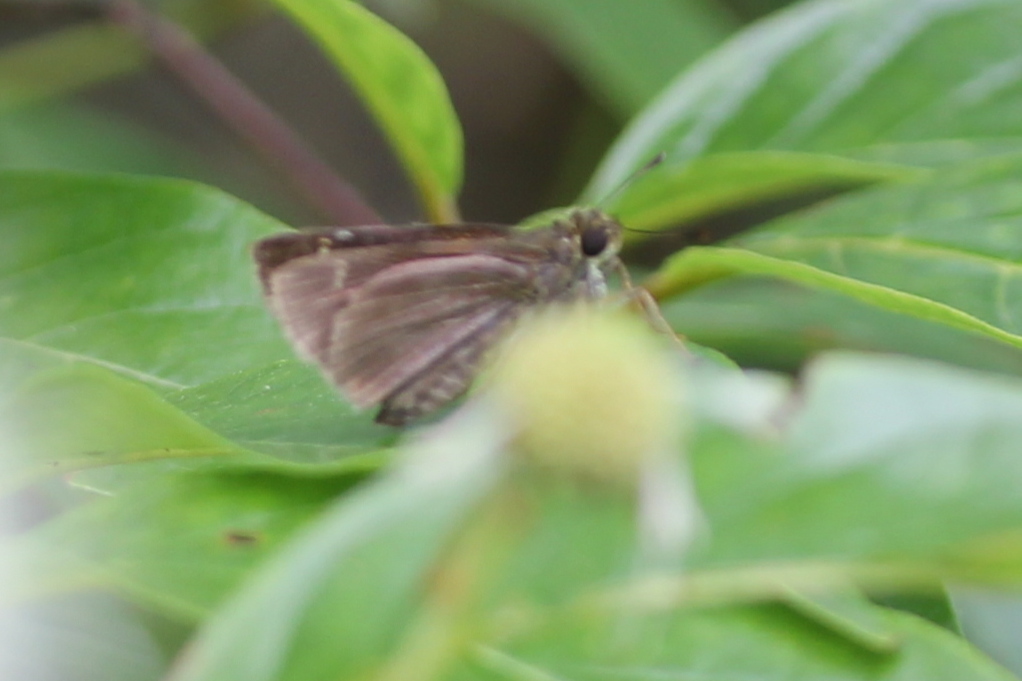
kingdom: Animalia
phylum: Arthropoda
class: Insecta
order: Lepidoptera
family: Hesperiidae
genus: Euphyes
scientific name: Euphyes vestris
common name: Dun skipper
